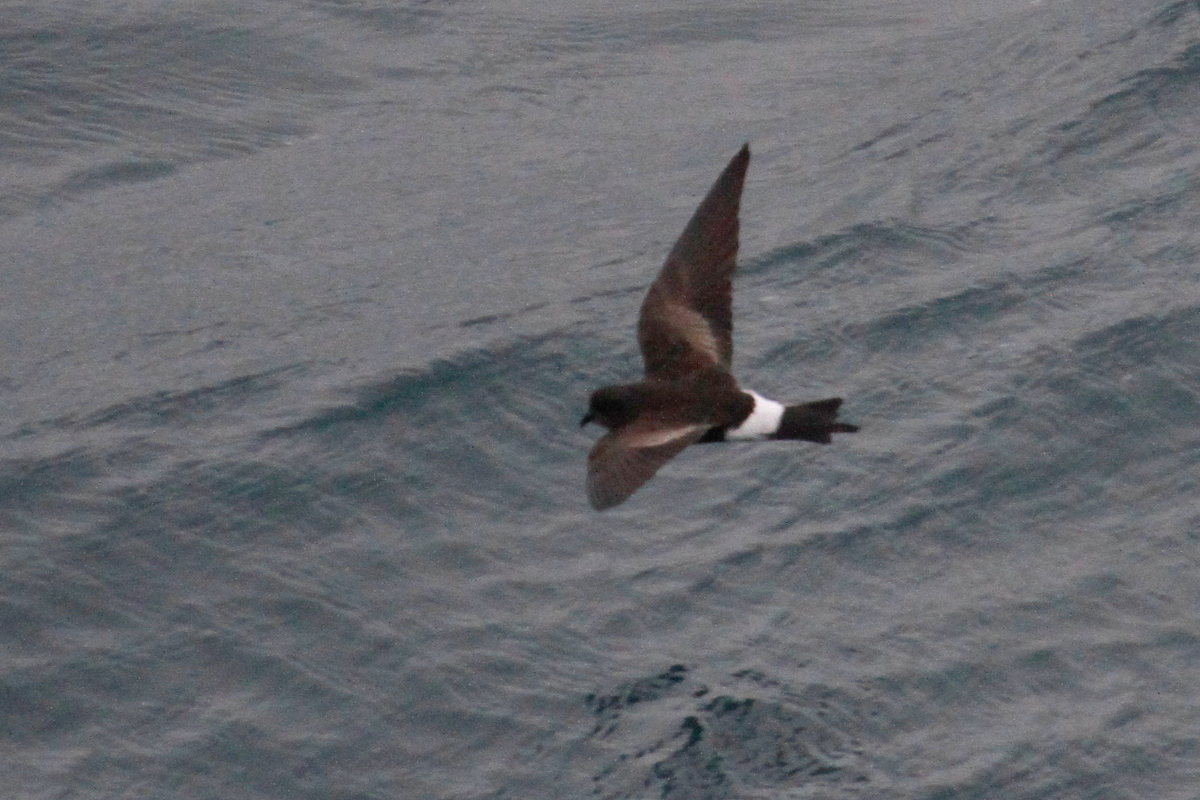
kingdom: Animalia
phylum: Chordata
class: Aves
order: Procellariiformes
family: Hydrobatidae
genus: Oceanites
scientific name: Oceanites oceanicus
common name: Wilson's storm petrel
